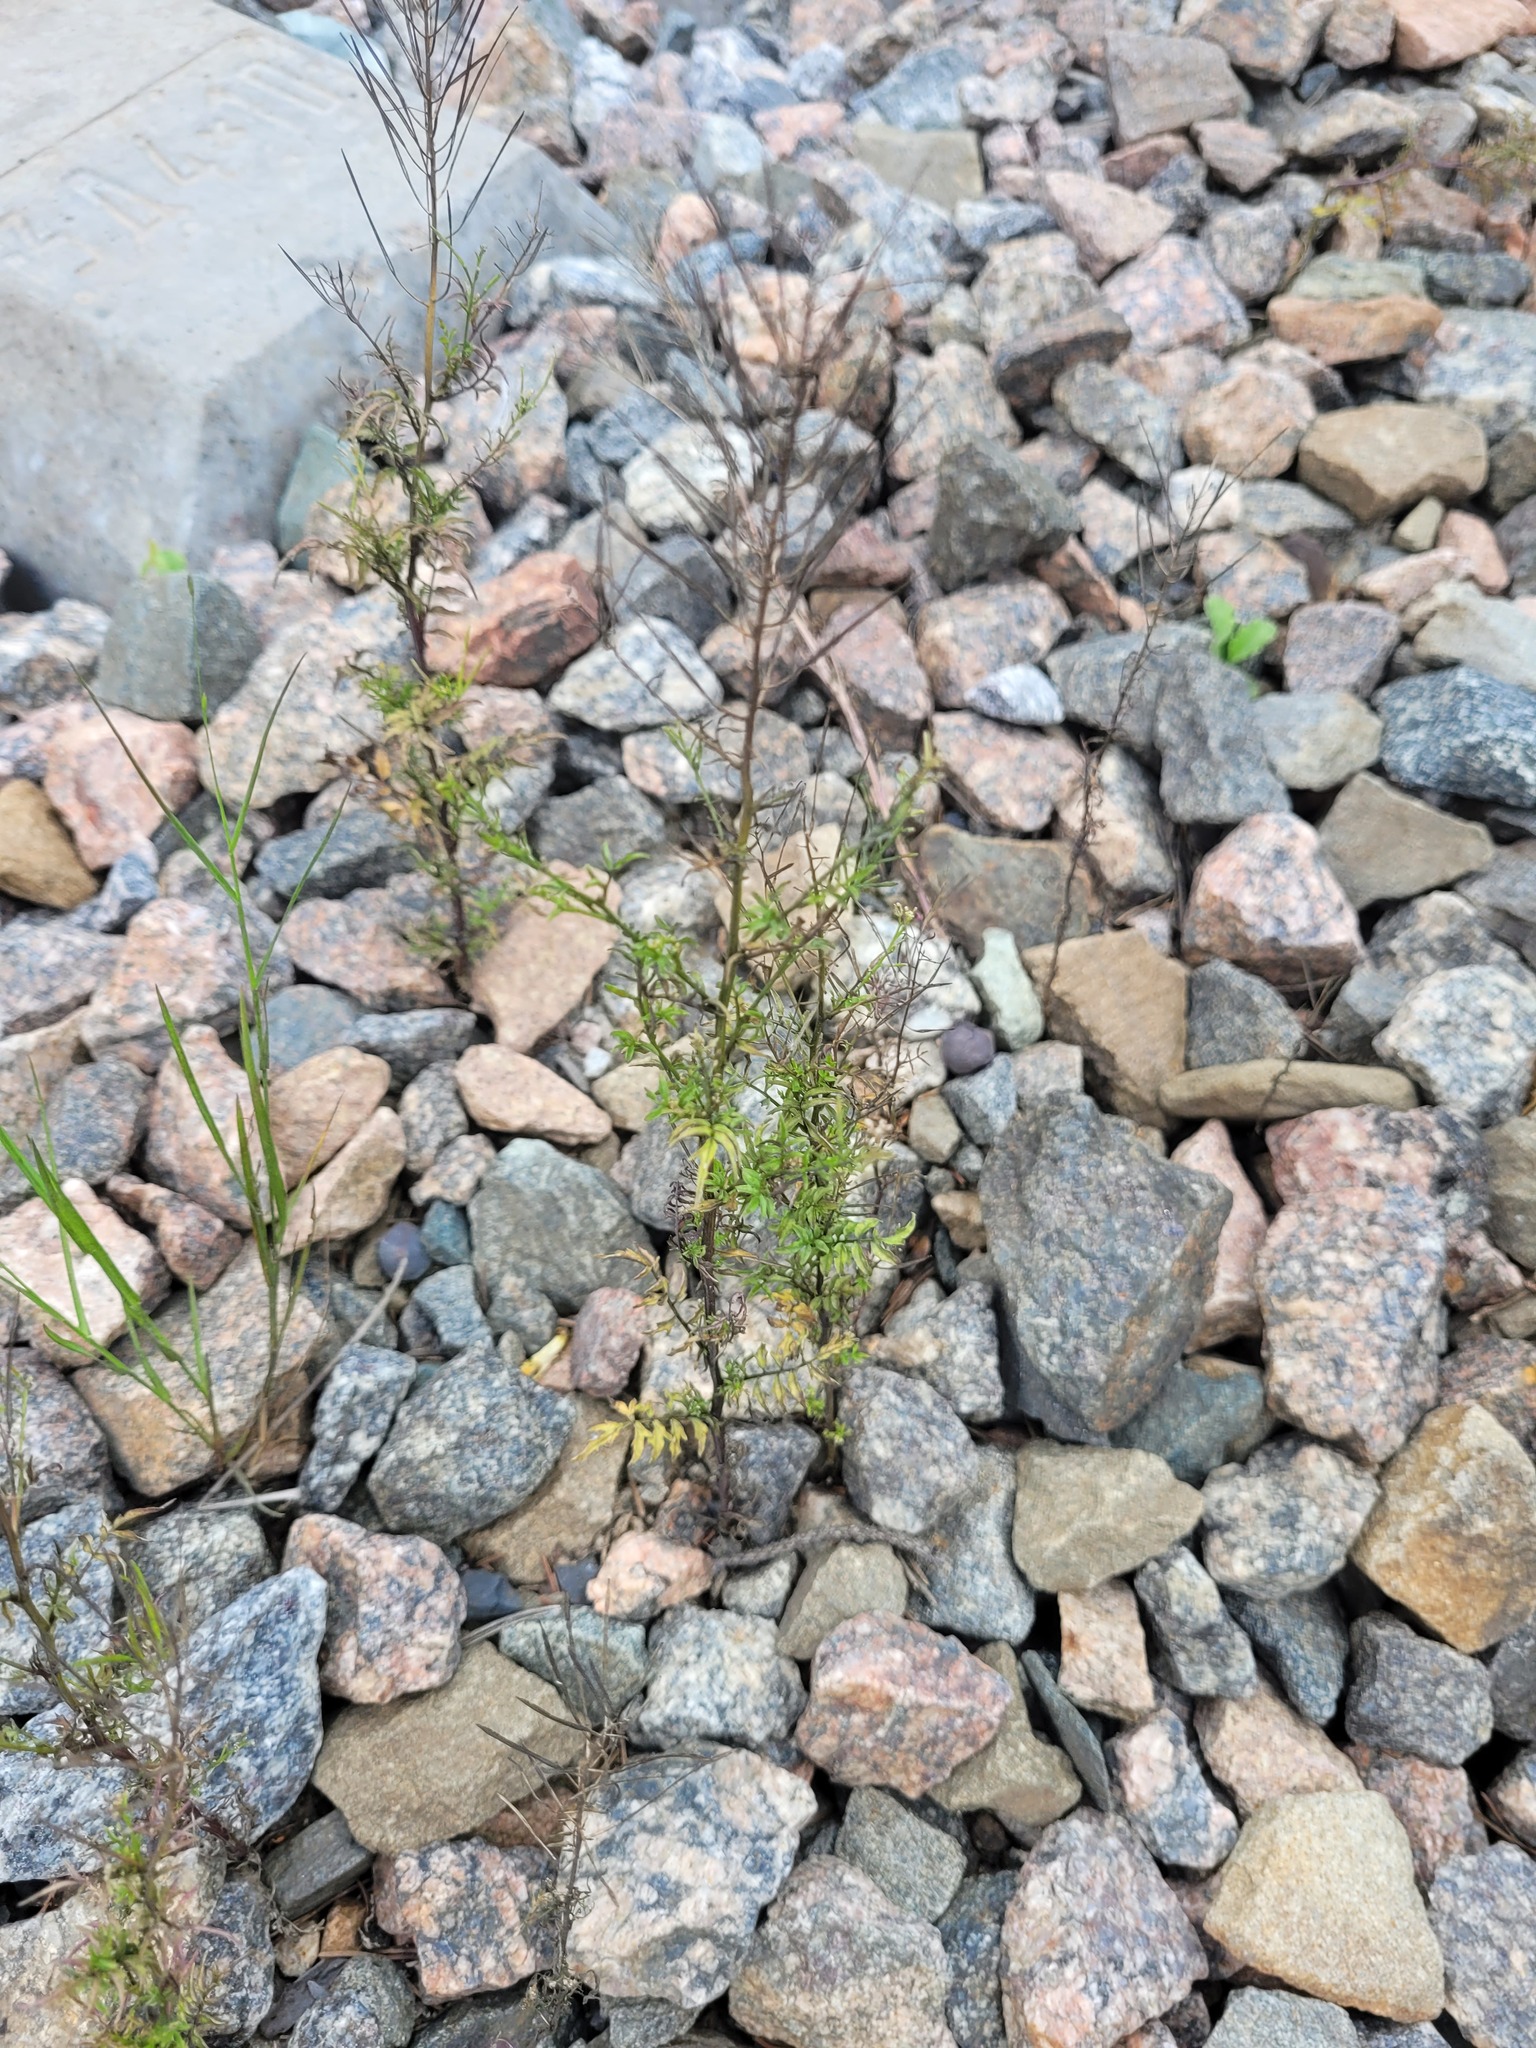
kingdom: Plantae
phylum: Tracheophyta
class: Magnoliopsida
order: Brassicales
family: Brassicaceae
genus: Cardamine
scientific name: Cardamine impatiens
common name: Narrow-leaved bitter-cress
